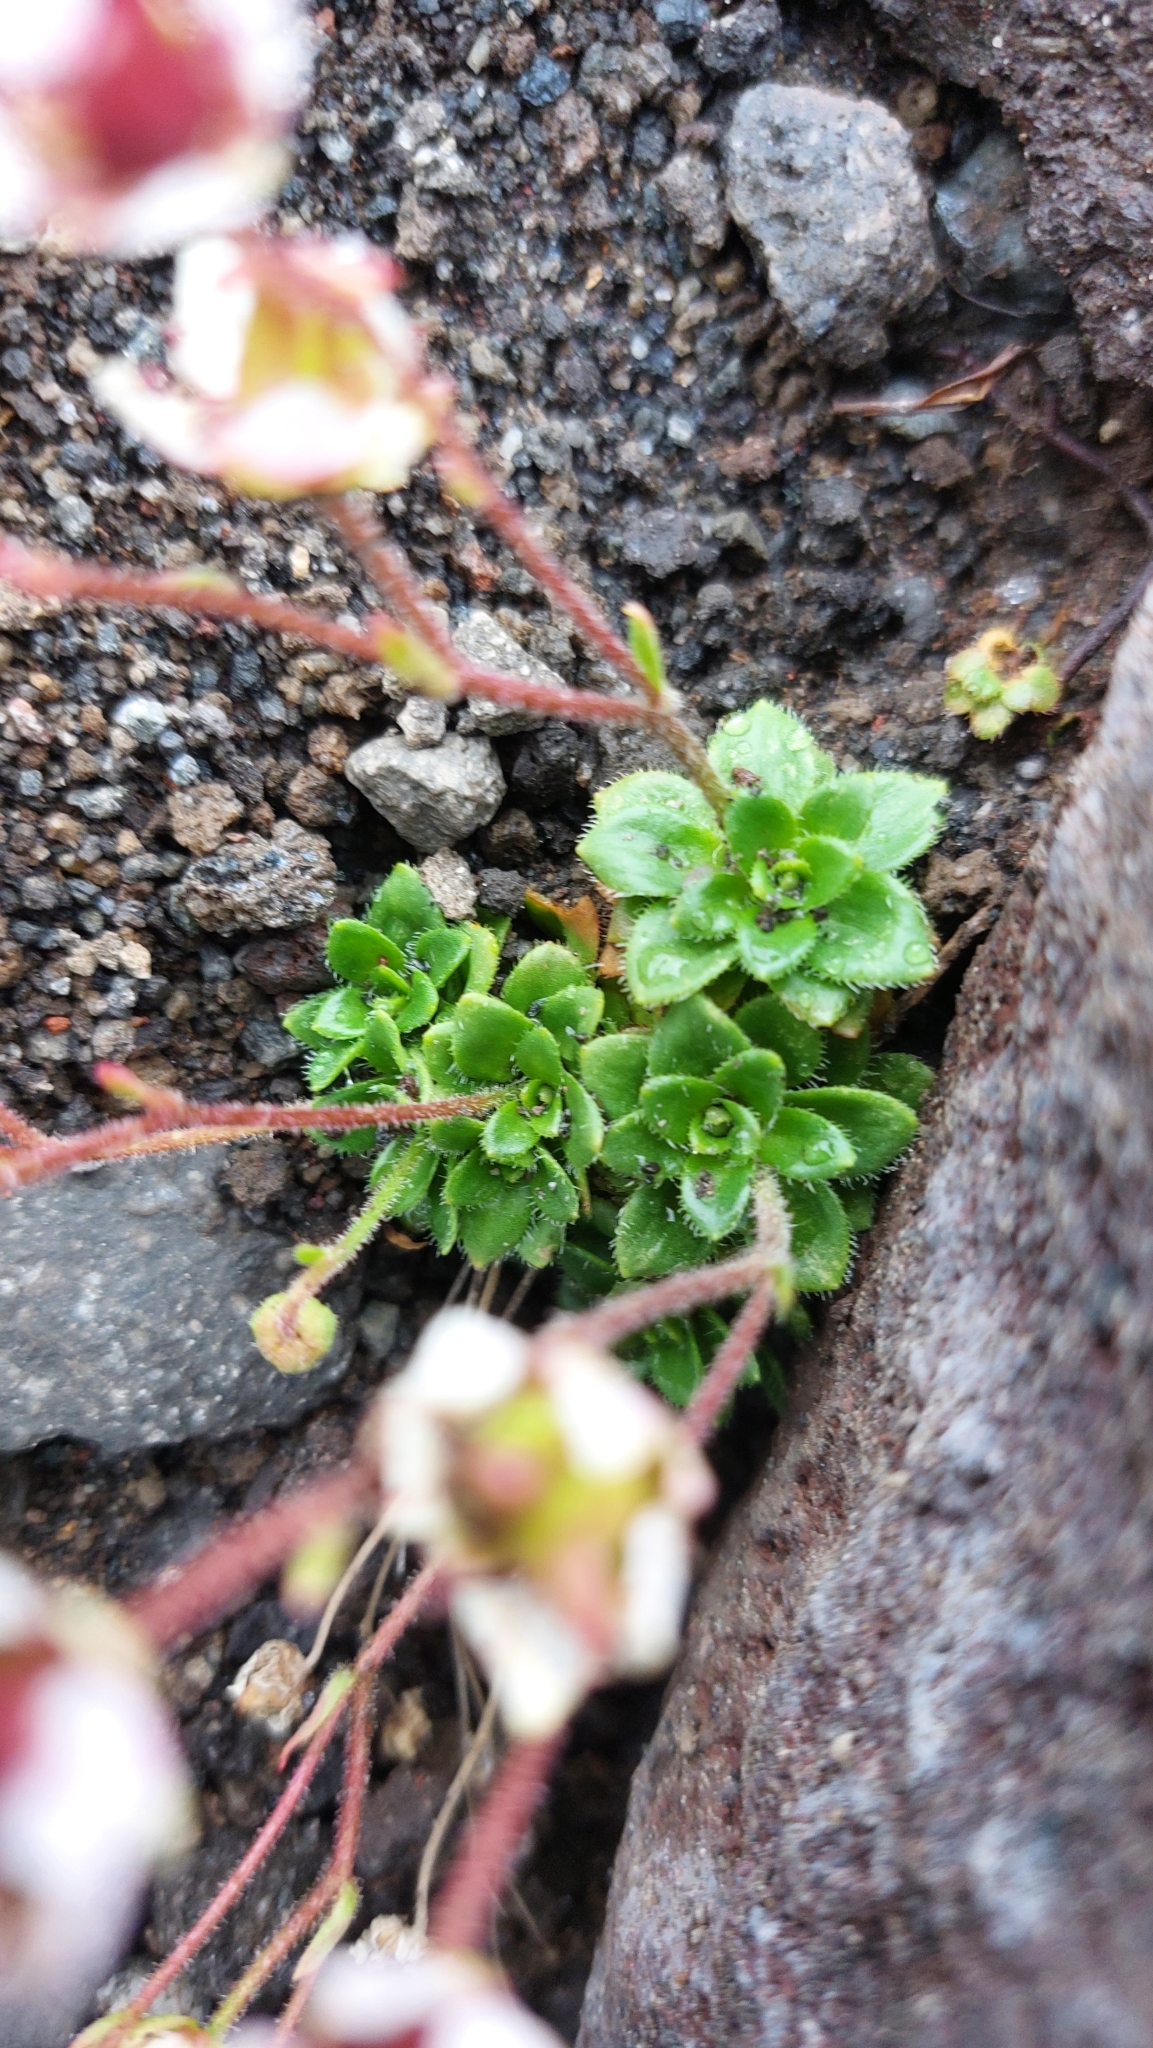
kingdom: Plantae
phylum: Tracheophyta
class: Magnoliopsida
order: Saxifragales
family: Saxifragaceae
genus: Micranthes
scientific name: Micranthes merkii
